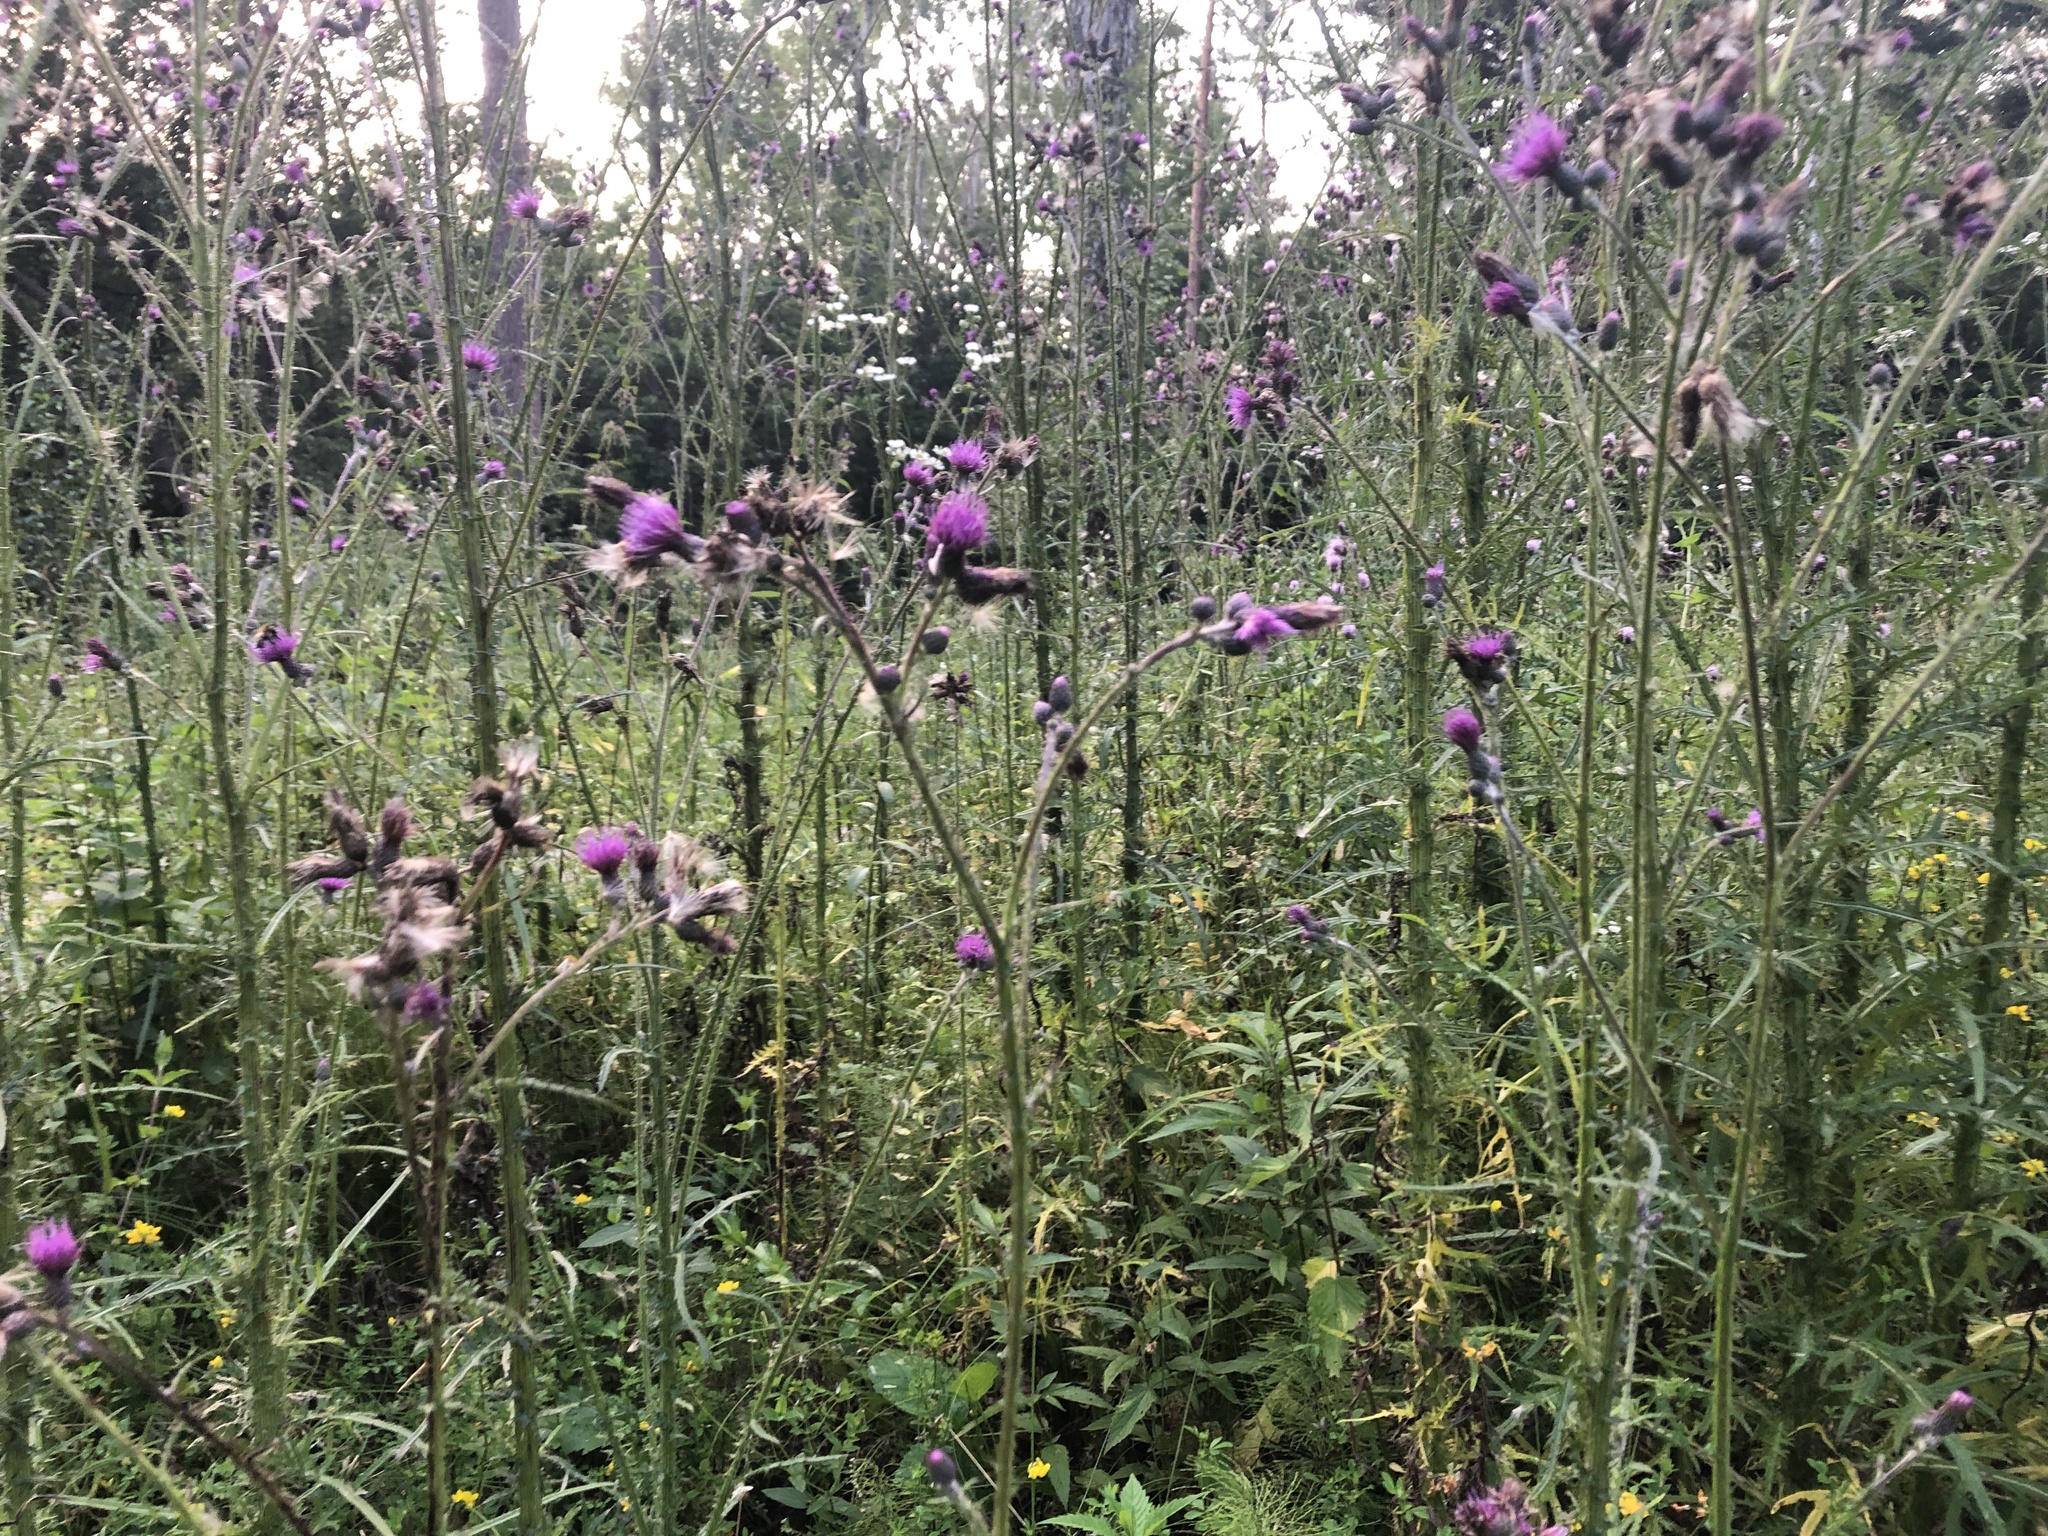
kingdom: Plantae
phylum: Tracheophyta
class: Magnoliopsida
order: Asterales
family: Asteraceae
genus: Cirsium
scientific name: Cirsium palustre
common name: Marsh thistle
